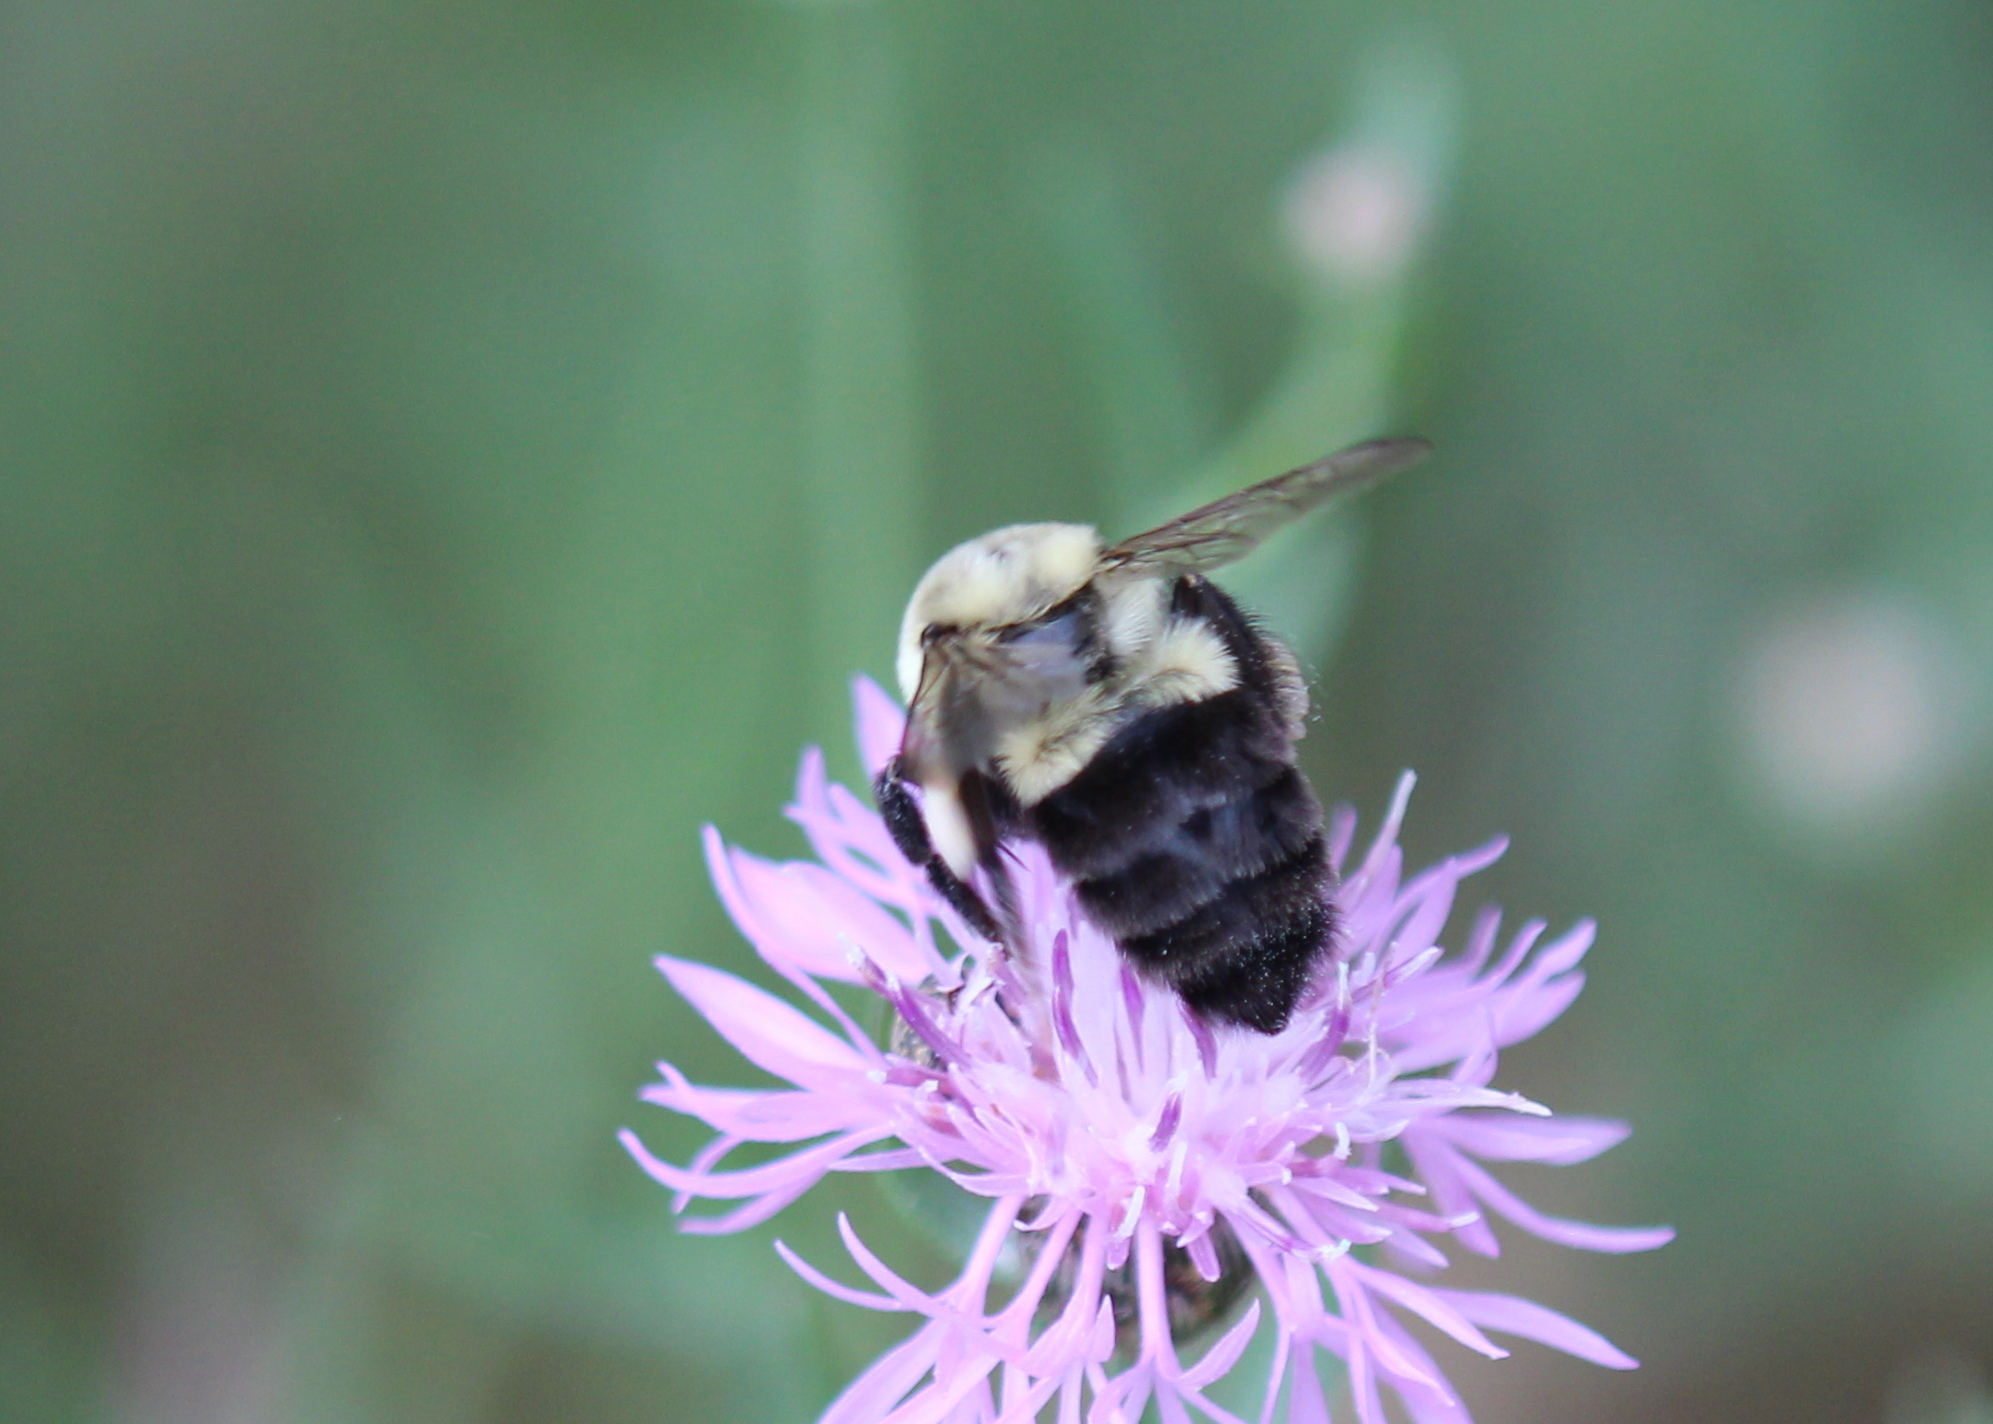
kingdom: Animalia
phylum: Arthropoda
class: Insecta
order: Hymenoptera
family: Apidae
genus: Bombus
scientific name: Bombus impatiens
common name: Common eastern bumble bee
